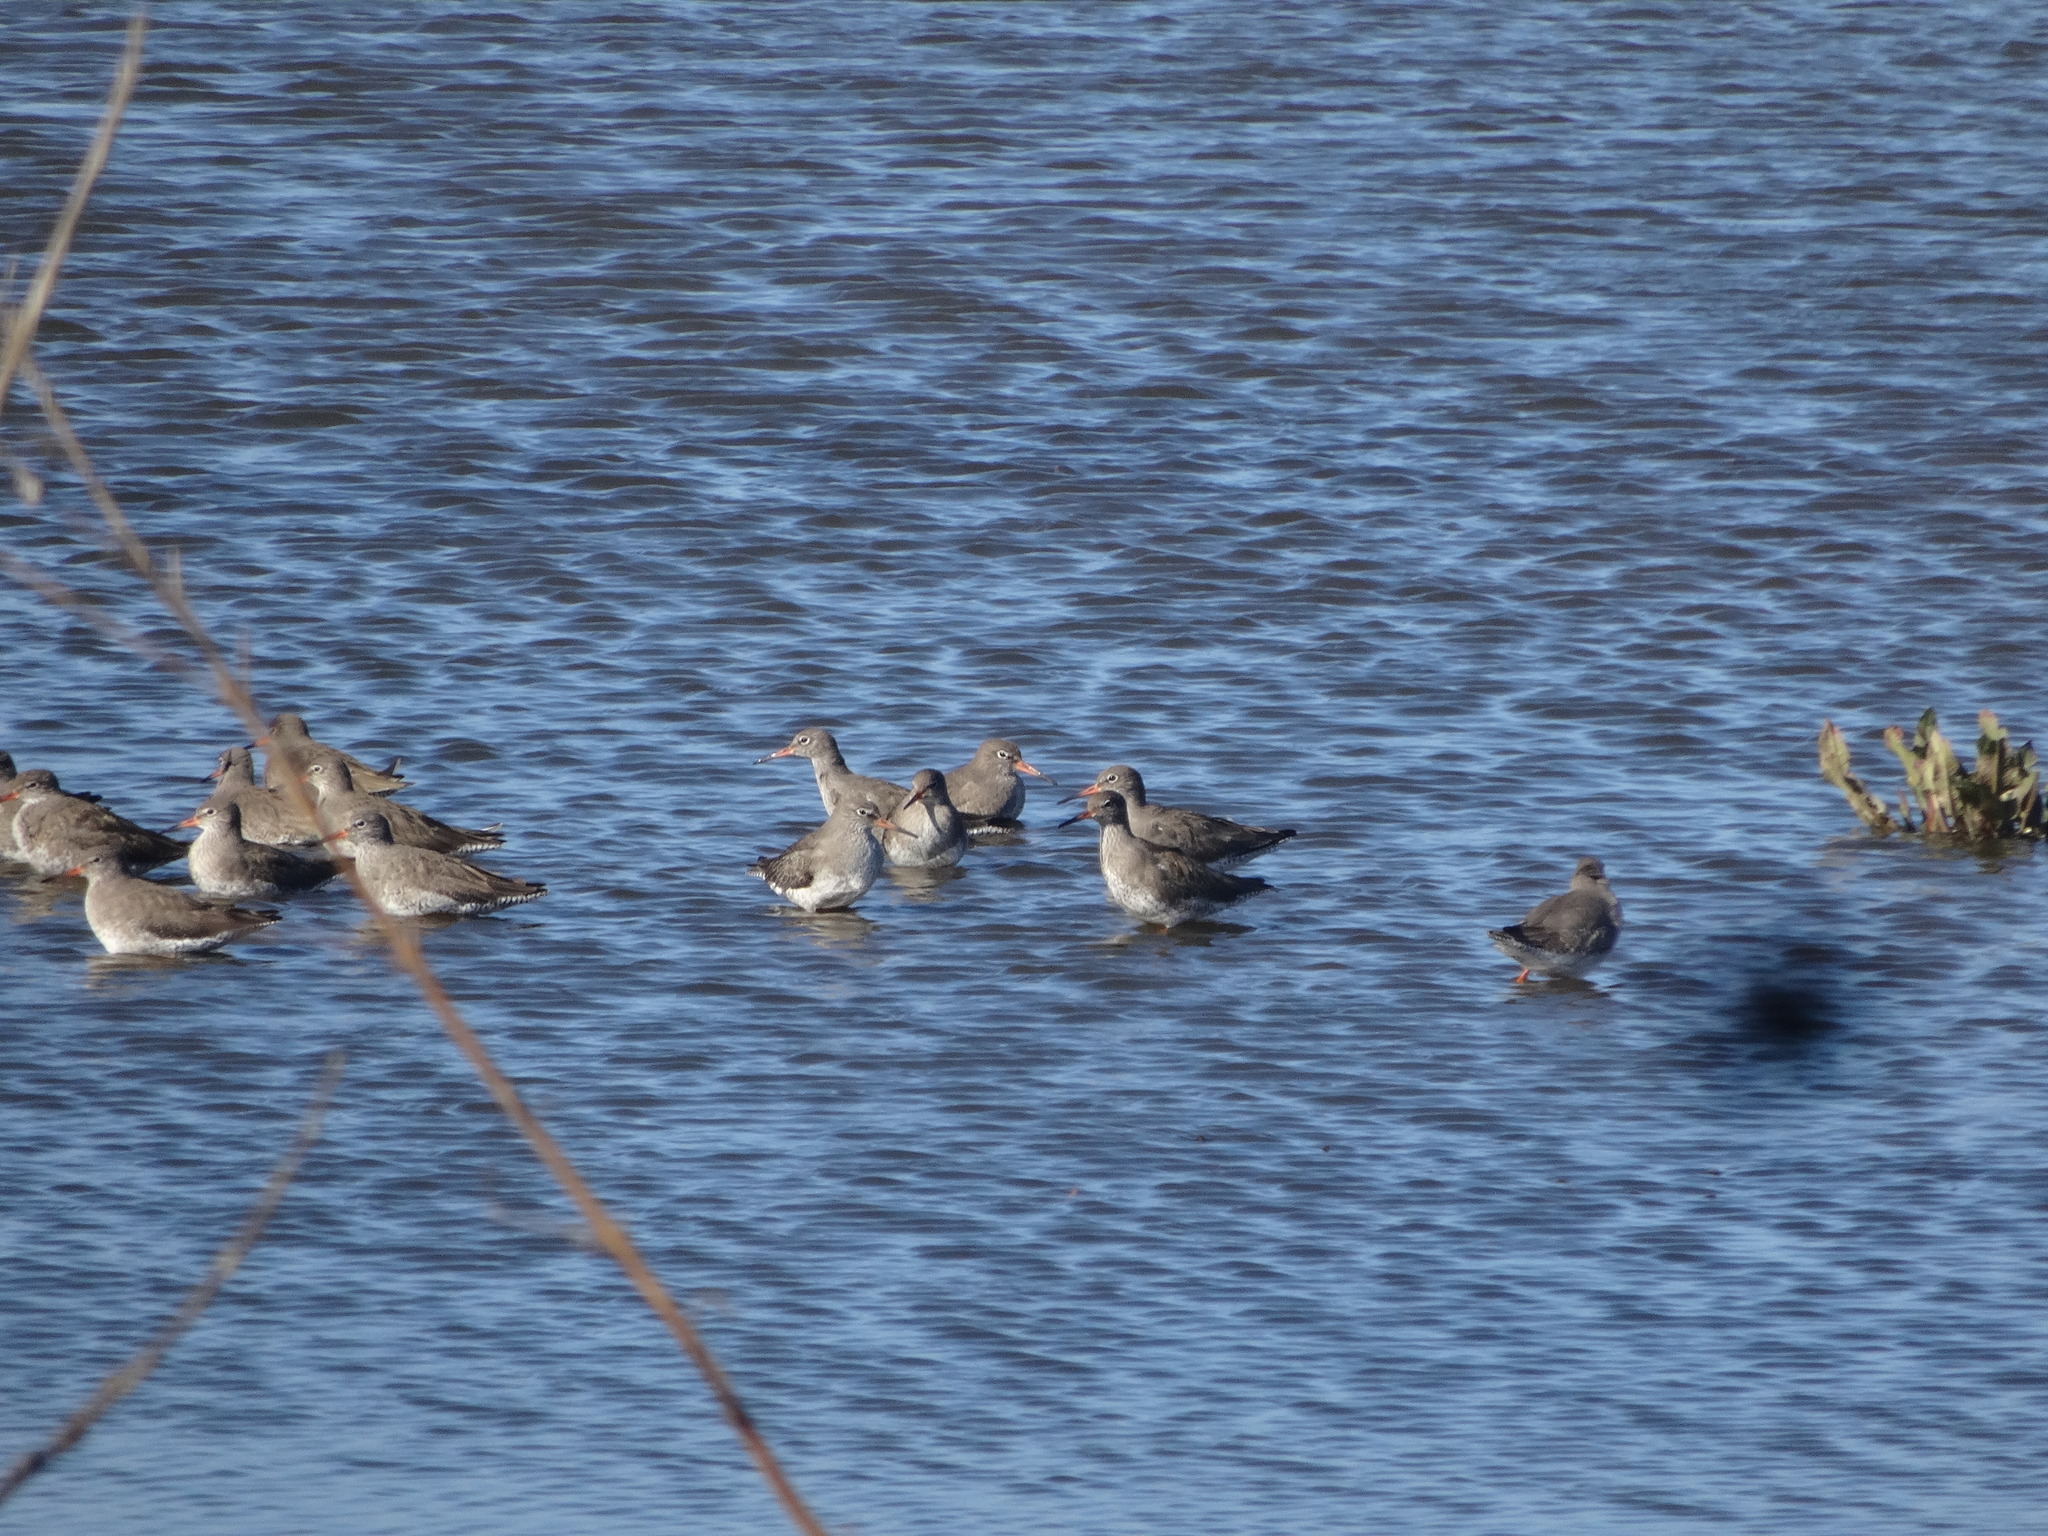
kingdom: Animalia
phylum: Chordata
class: Aves
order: Charadriiformes
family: Scolopacidae
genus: Tringa
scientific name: Tringa totanus
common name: Common redshank
